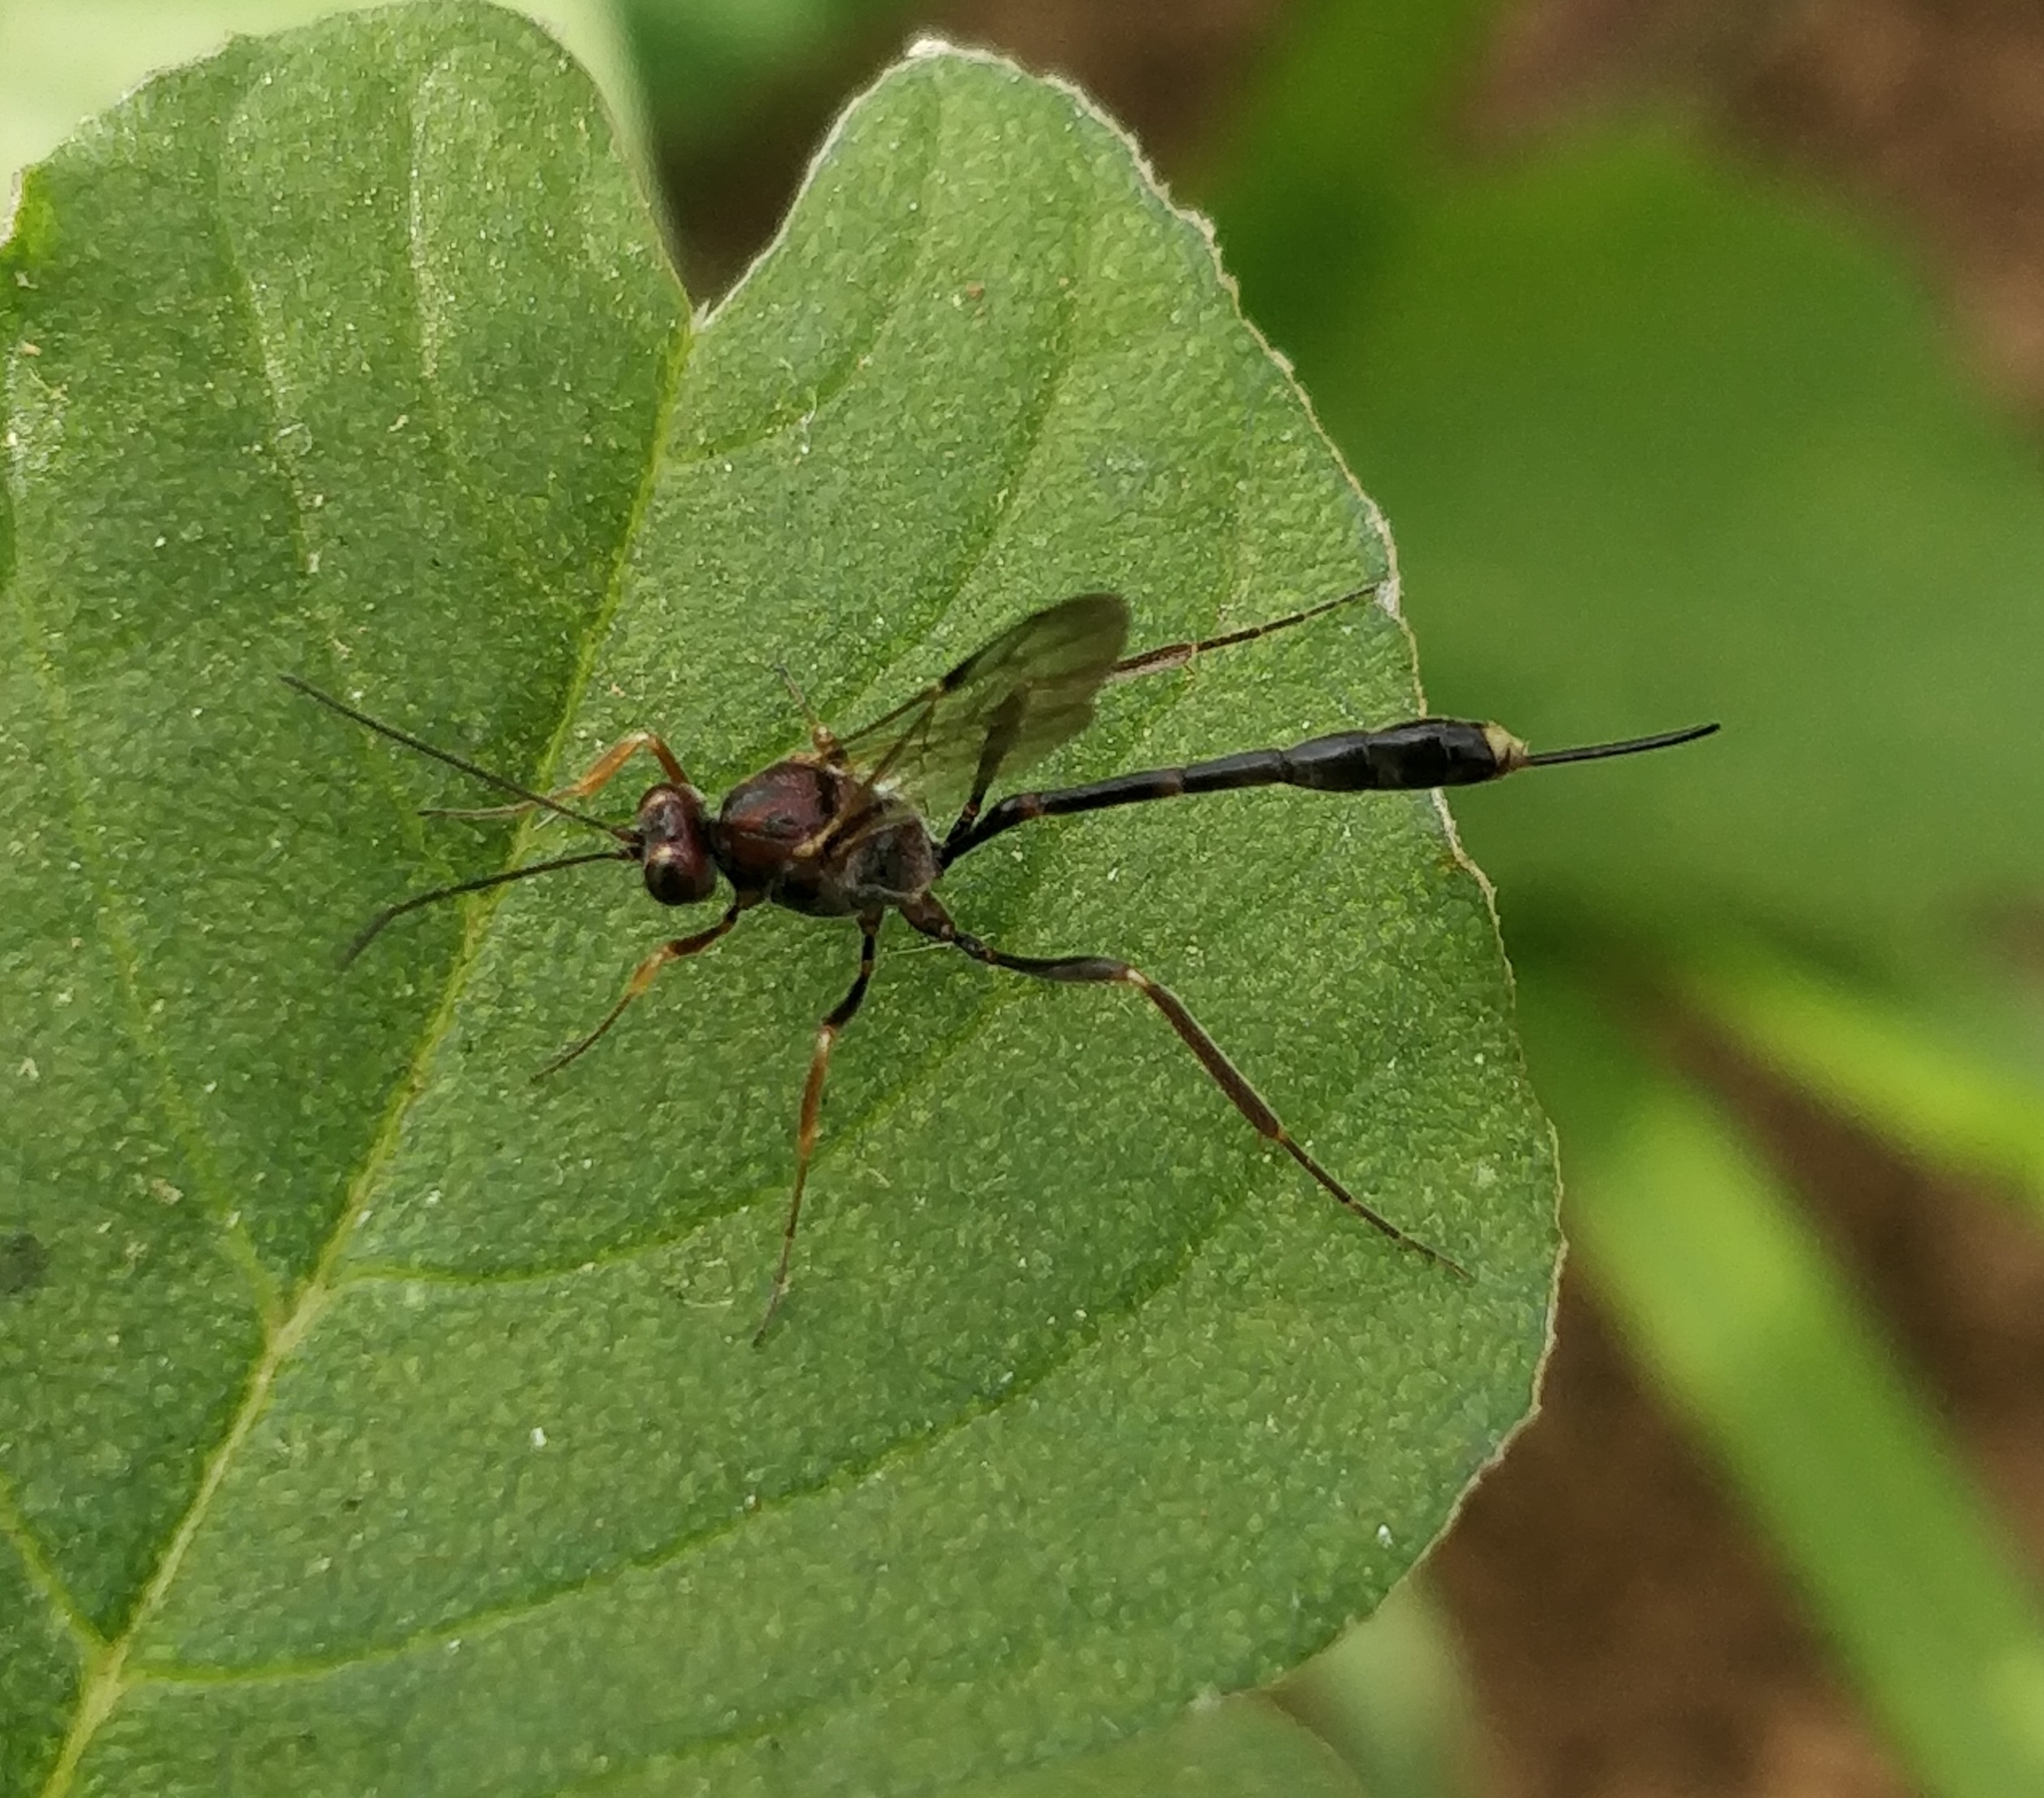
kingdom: Animalia
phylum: Arthropoda
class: Insecta
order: Hymenoptera
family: Ichneumonidae
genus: Anomalon
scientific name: Anomalon cruentatum
